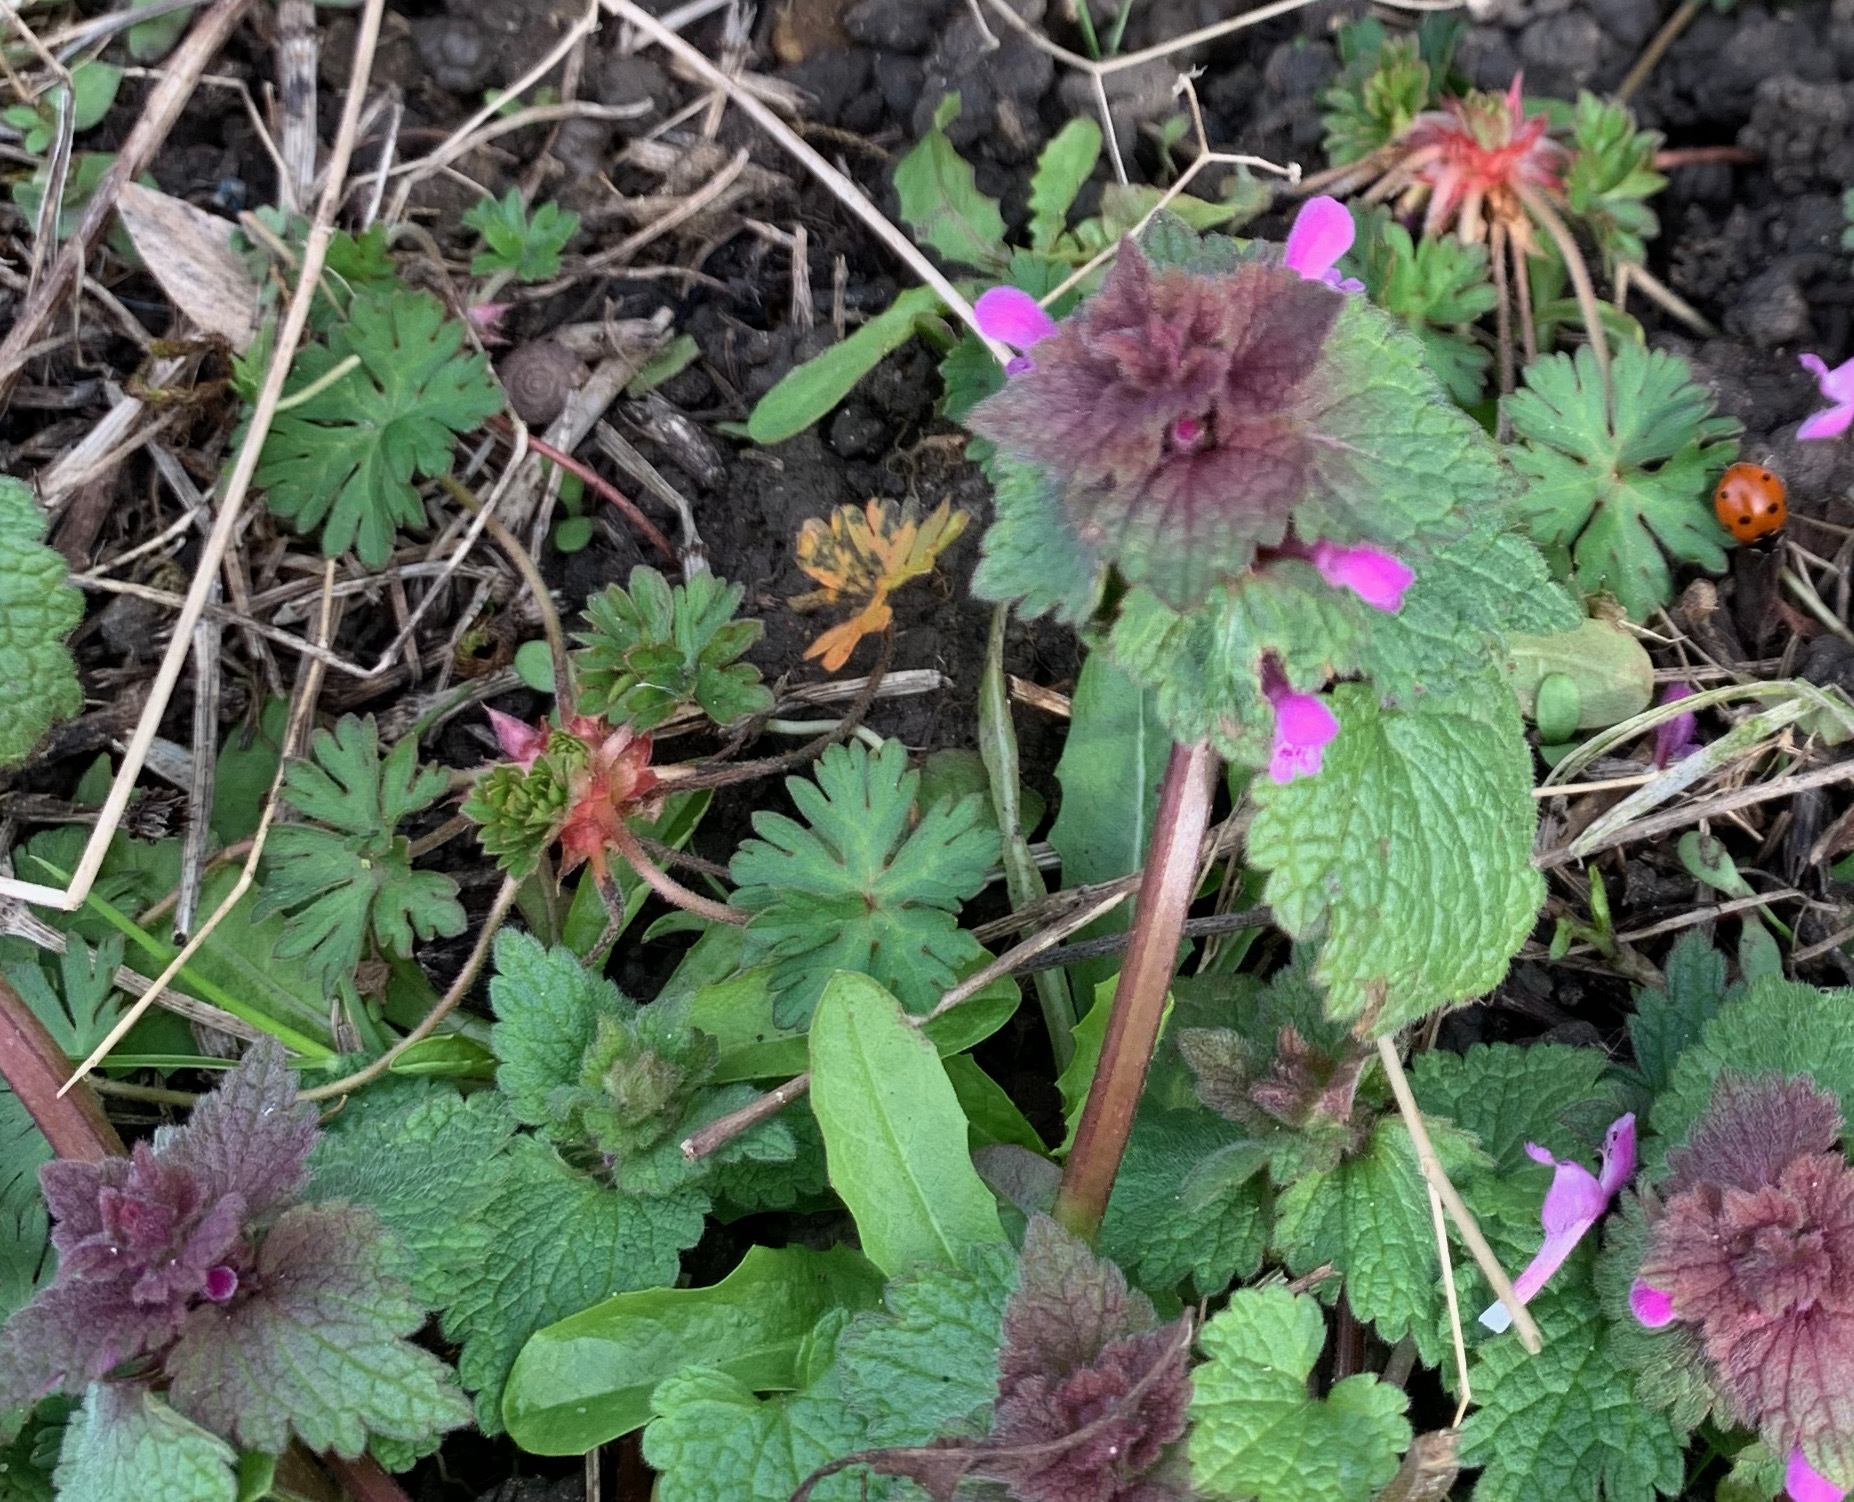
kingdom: Plantae
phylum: Tracheophyta
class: Magnoliopsida
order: Lamiales
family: Lamiaceae
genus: Lamium
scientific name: Lamium purpureum
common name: Red dead-nettle
